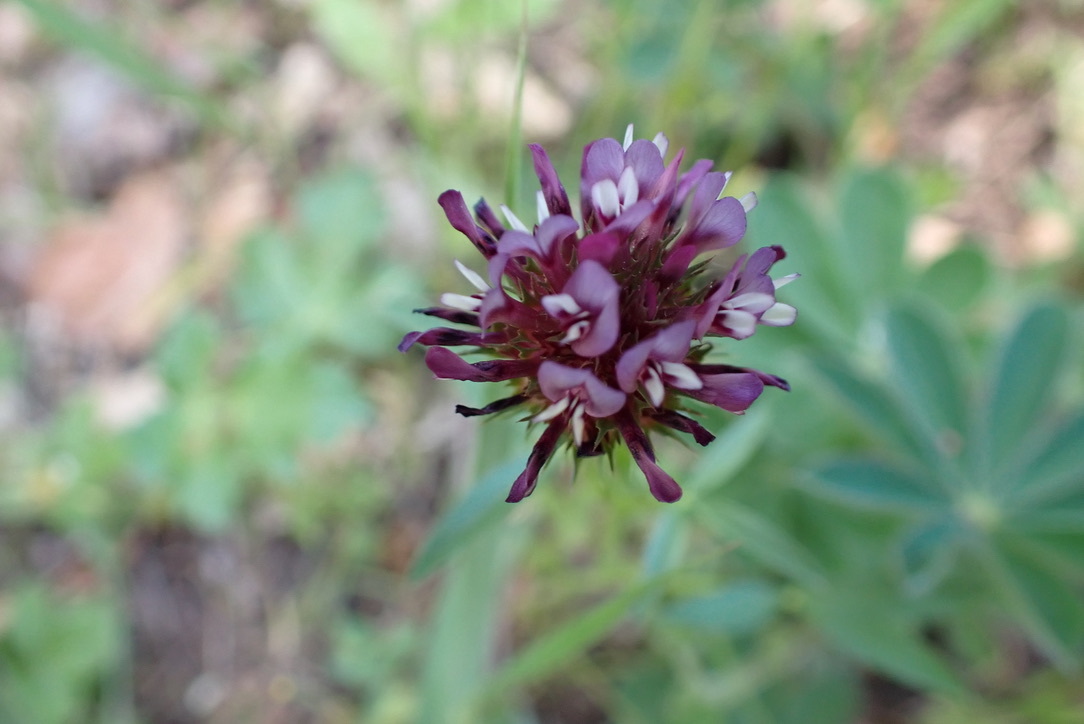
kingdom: Plantae
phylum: Tracheophyta
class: Magnoliopsida
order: Fabales
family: Fabaceae
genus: Trifolium
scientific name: Trifolium willdenovii
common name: Tomcat clover
